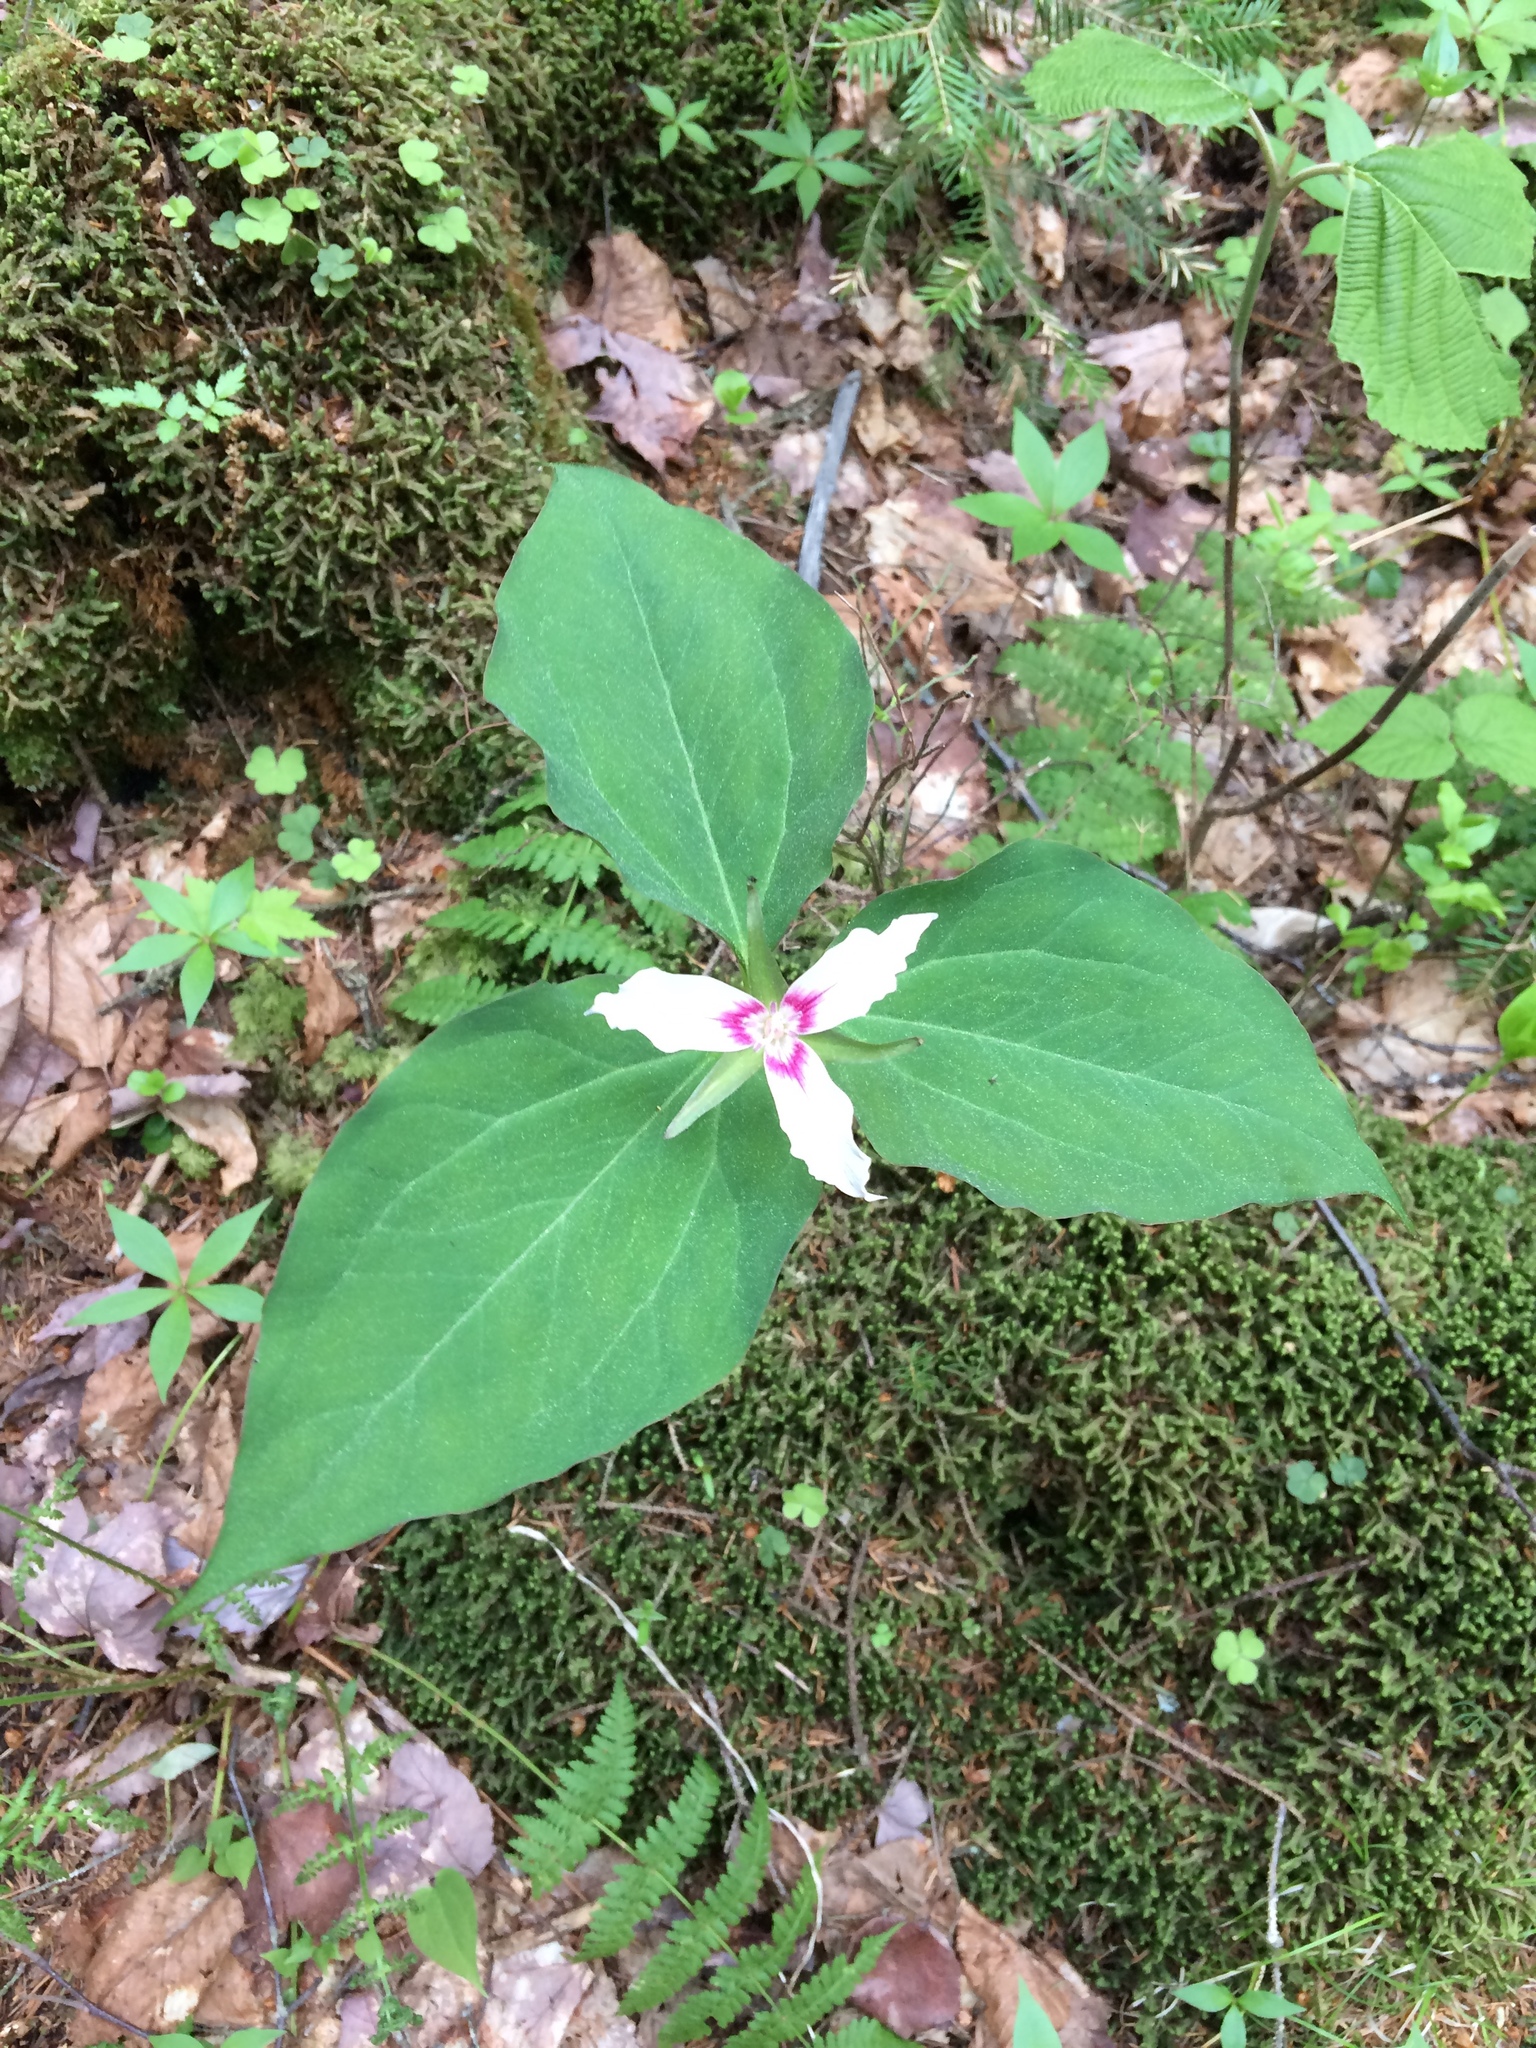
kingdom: Plantae
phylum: Tracheophyta
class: Liliopsida
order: Liliales
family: Melanthiaceae
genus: Trillium
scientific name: Trillium undulatum
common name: Paint trillium
